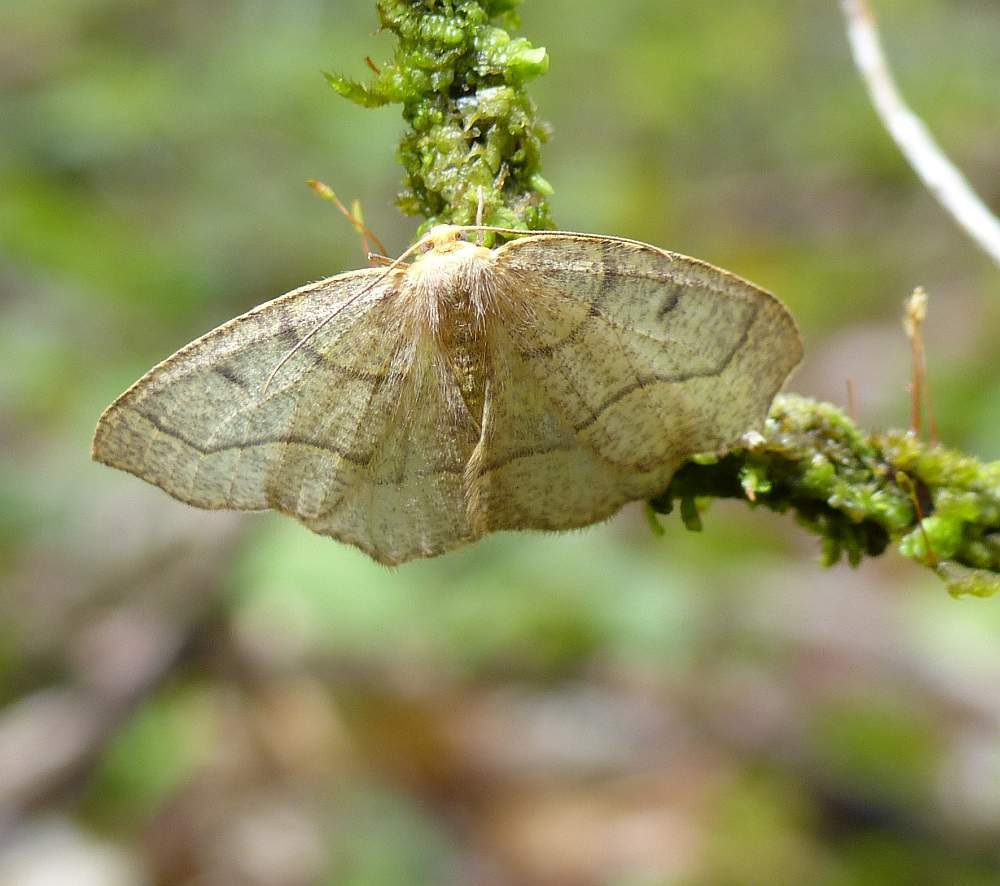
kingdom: Animalia
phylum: Arthropoda
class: Insecta
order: Lepidoptera
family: Geometridae
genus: Lambdina
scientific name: Lambdina fiscellaria
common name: Hemlock looper
